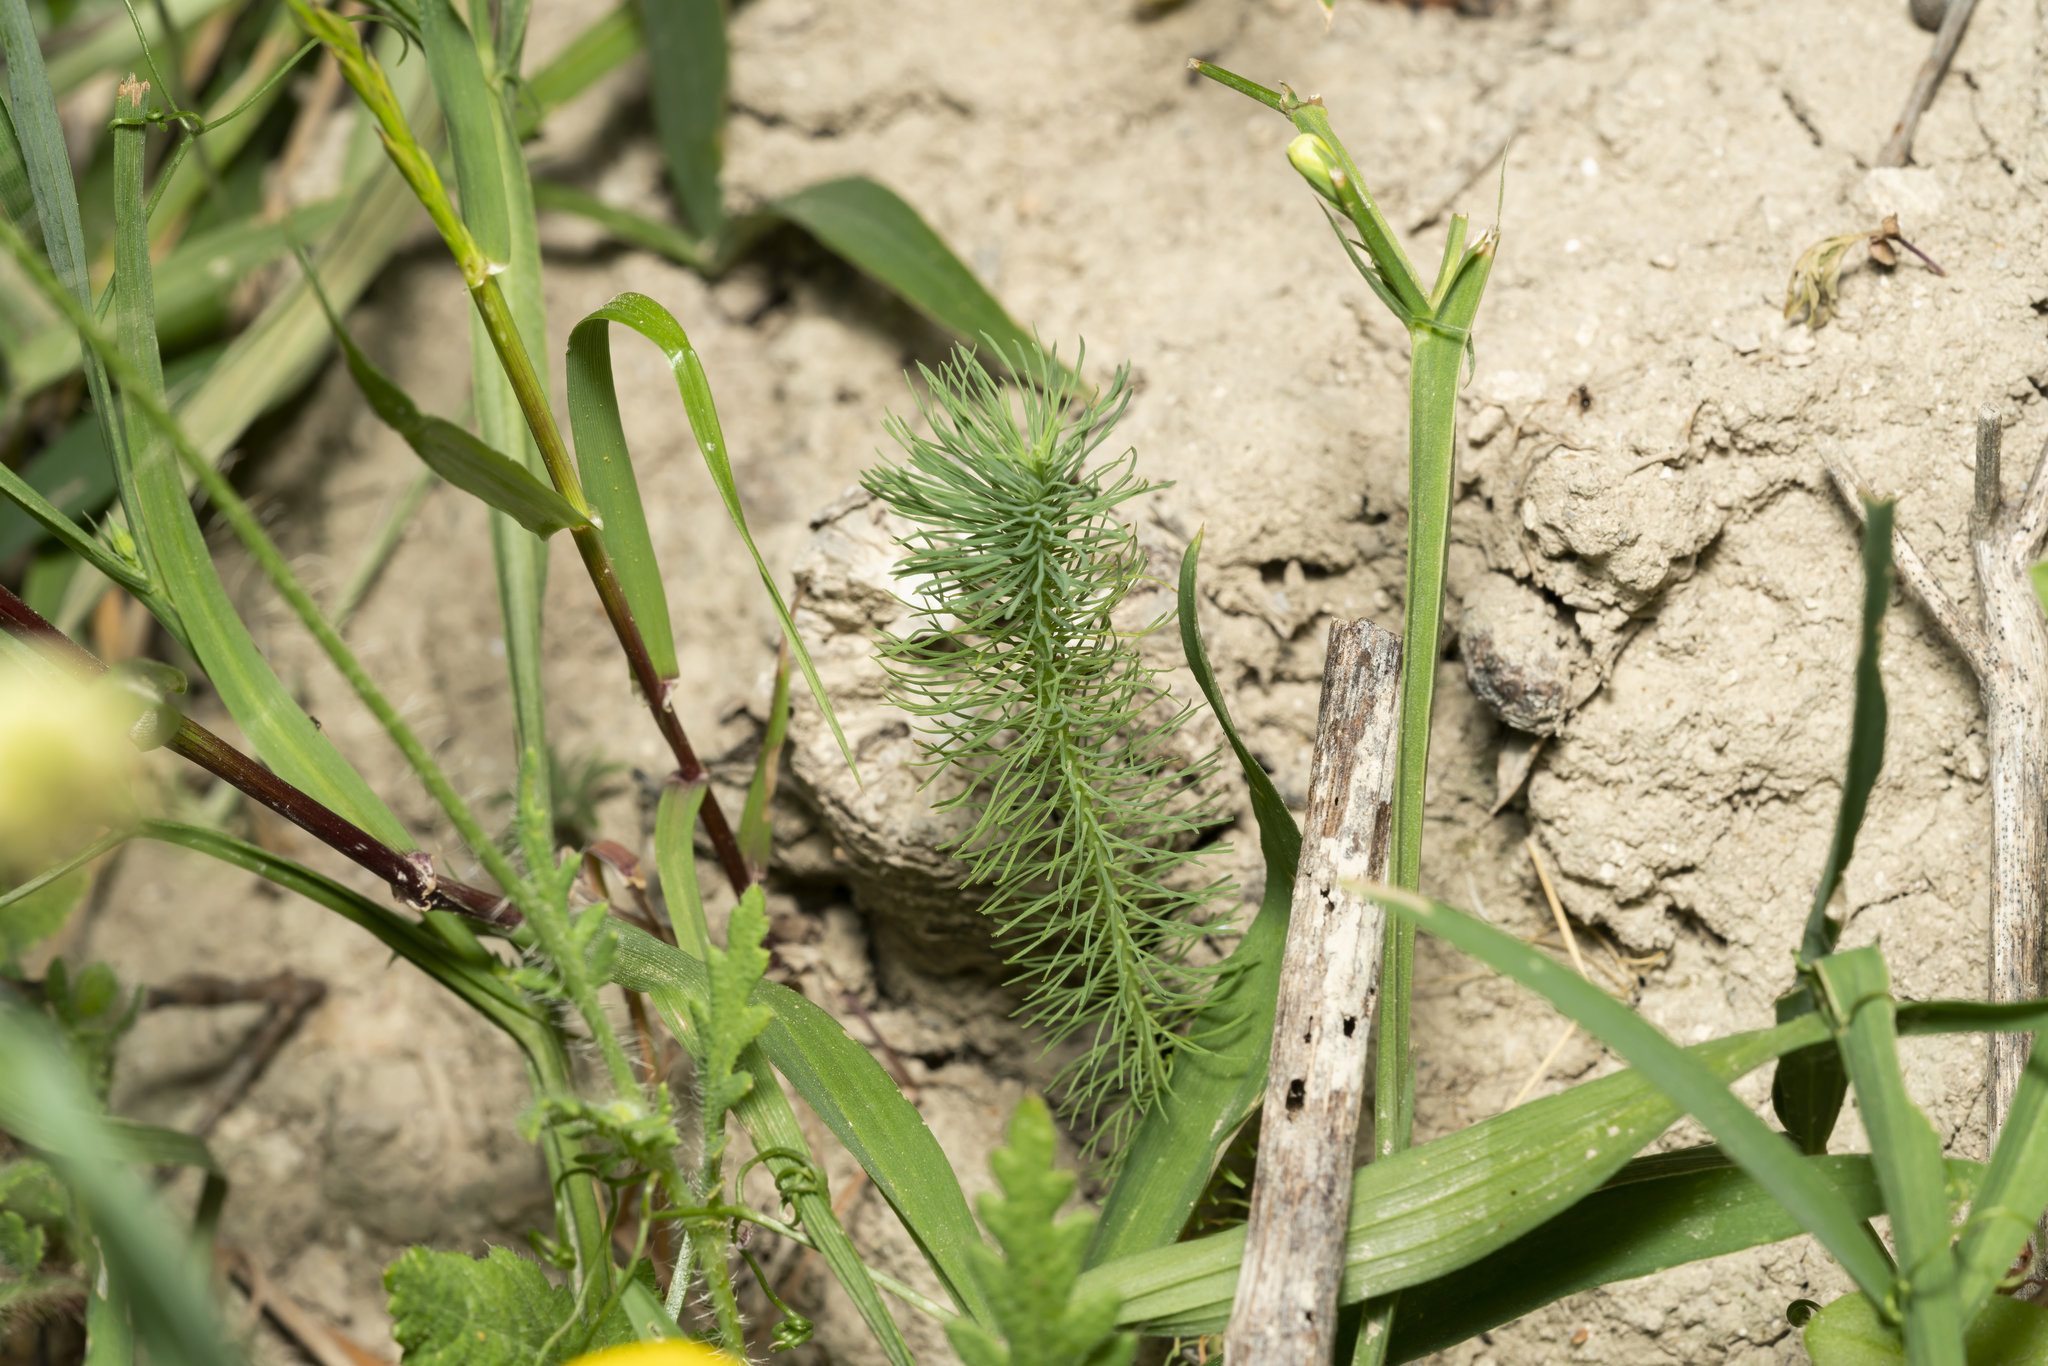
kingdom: Plantae
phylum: Tracheophyta
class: Magnoliopsida
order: Malpighiales
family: Euphorbiaceae
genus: Euphorbia
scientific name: Euphorbia aleppica
